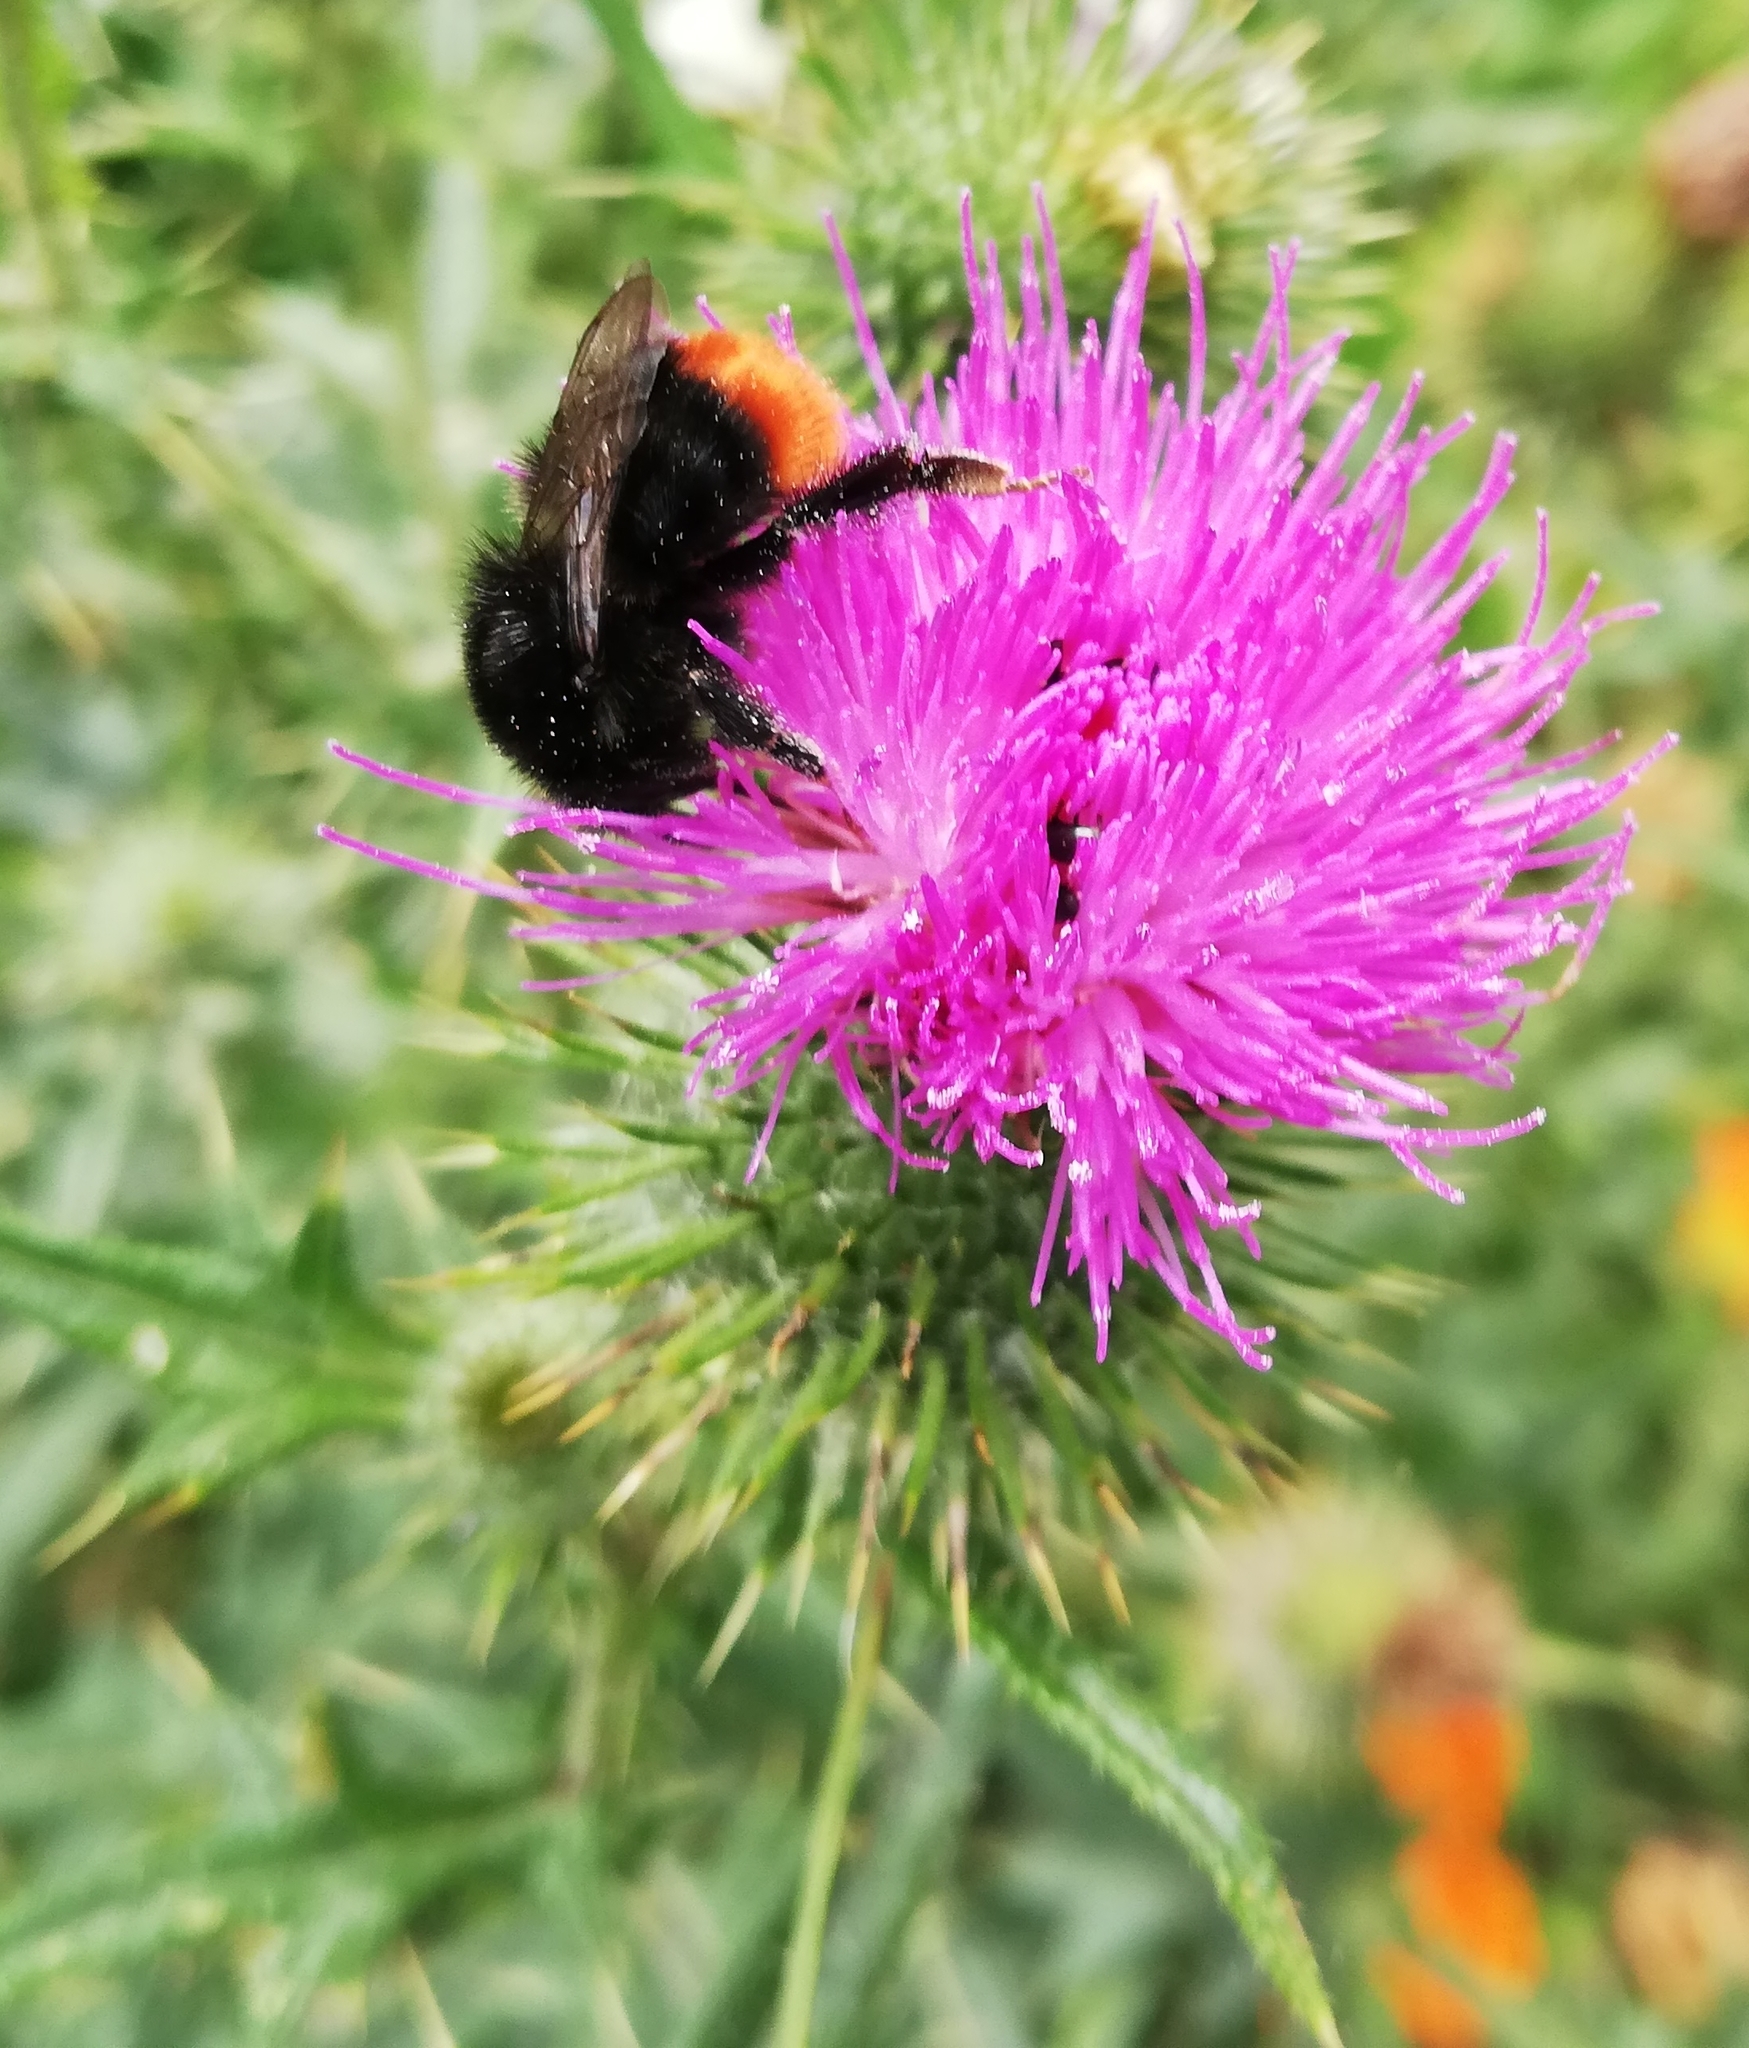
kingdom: Animalia
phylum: Arthropoda
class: Insecta
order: Hymenoptera
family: Apidae
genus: Bombus
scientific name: Bombus lapidarius
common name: Large red-tailed humble-bee
